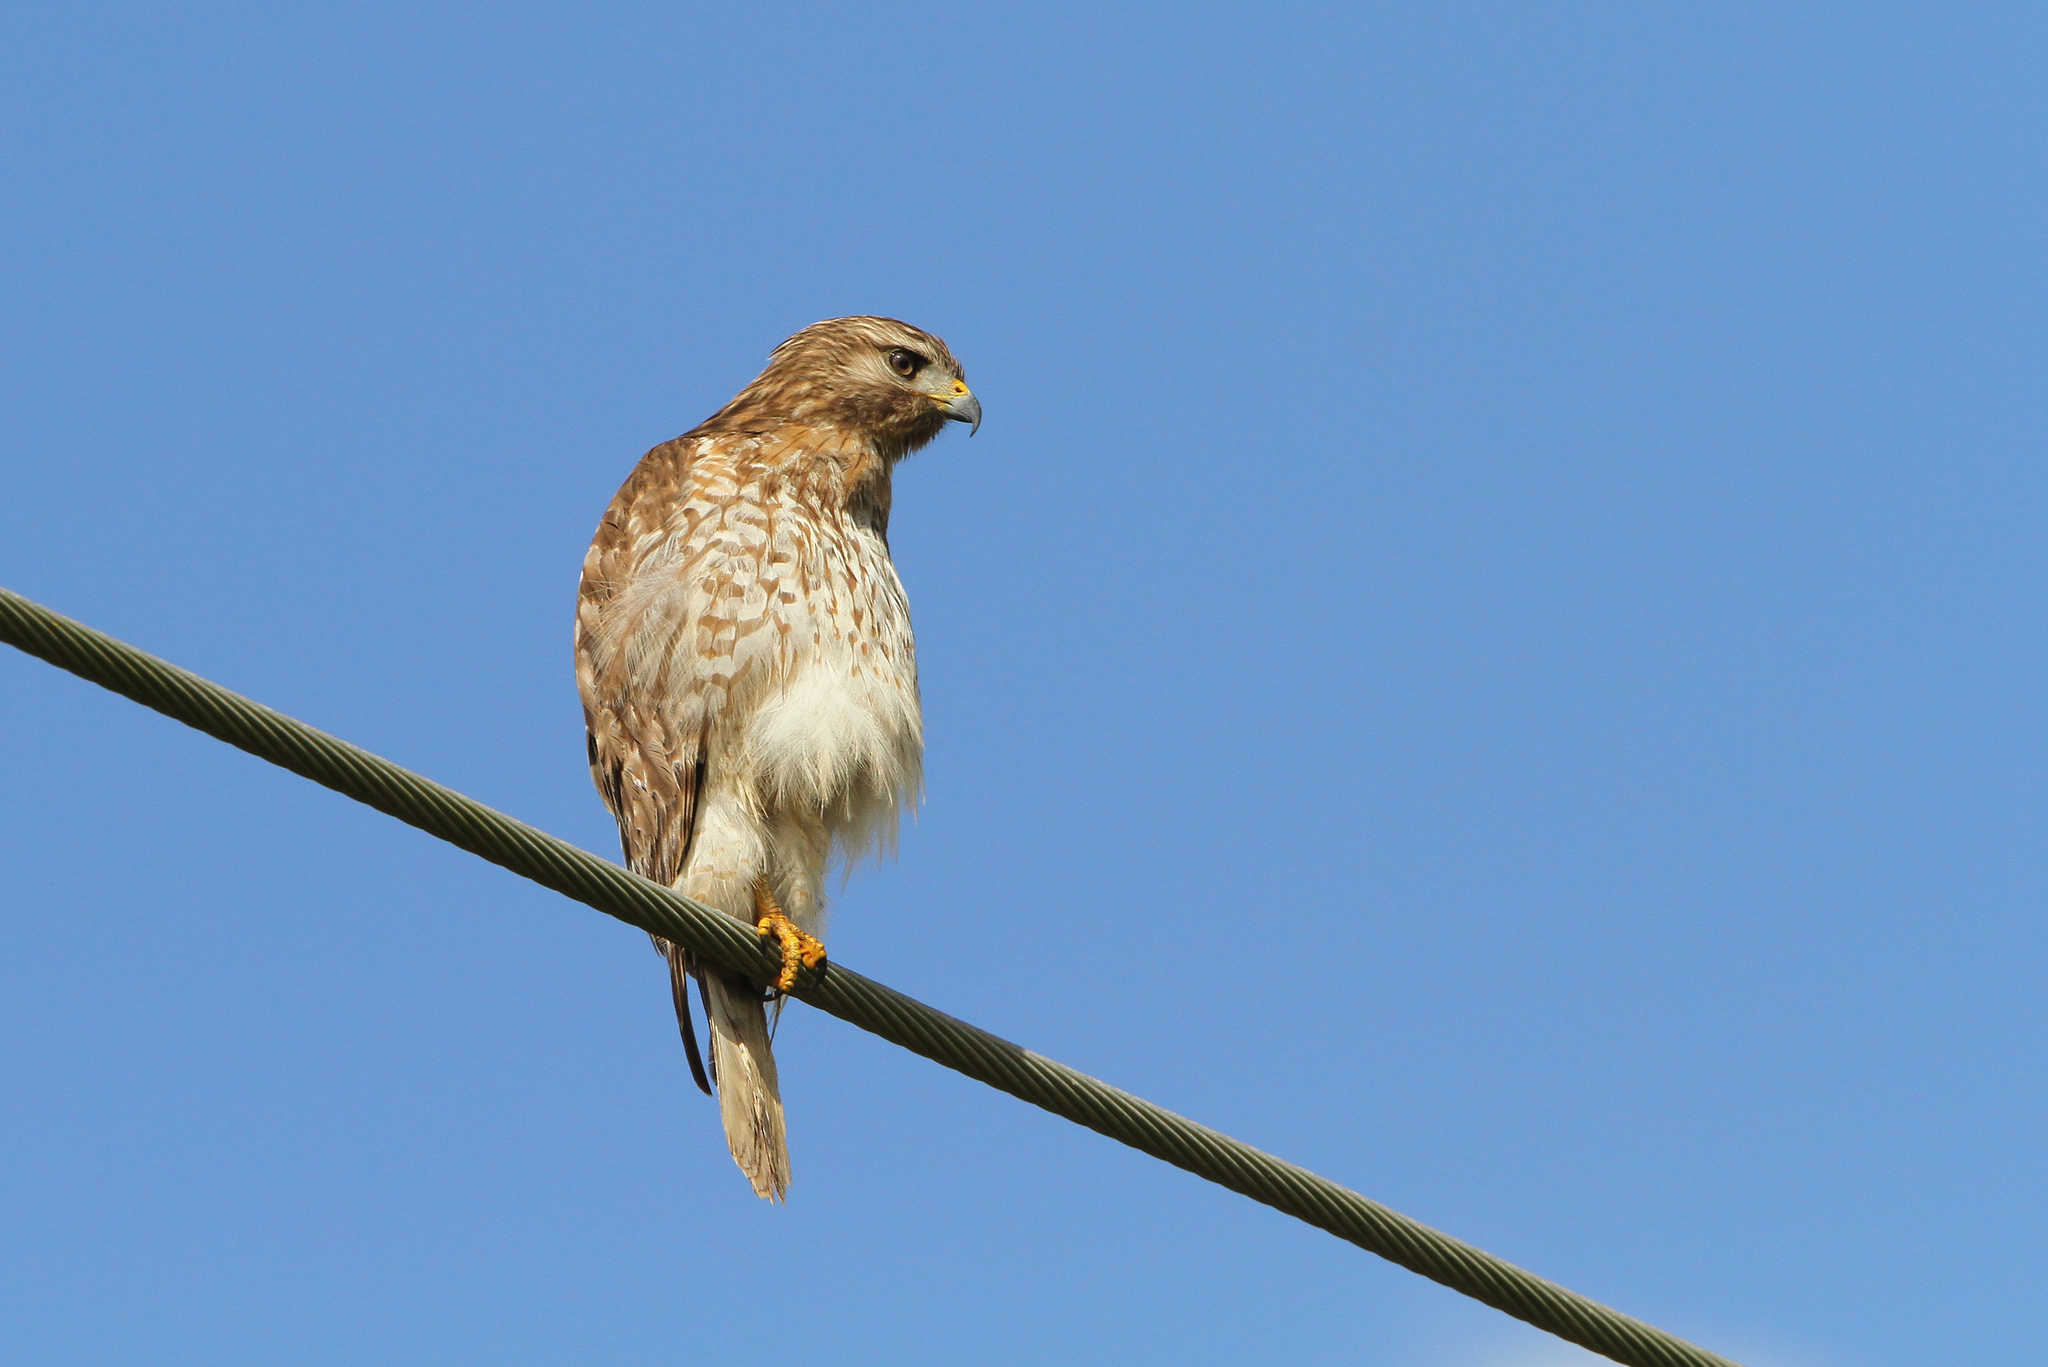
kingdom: Animalia
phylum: Chordata
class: Aves
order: Accipitriformes
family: Accipitridae
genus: Buteo
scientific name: Buteo lineatus
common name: Red-shouldered hawk
